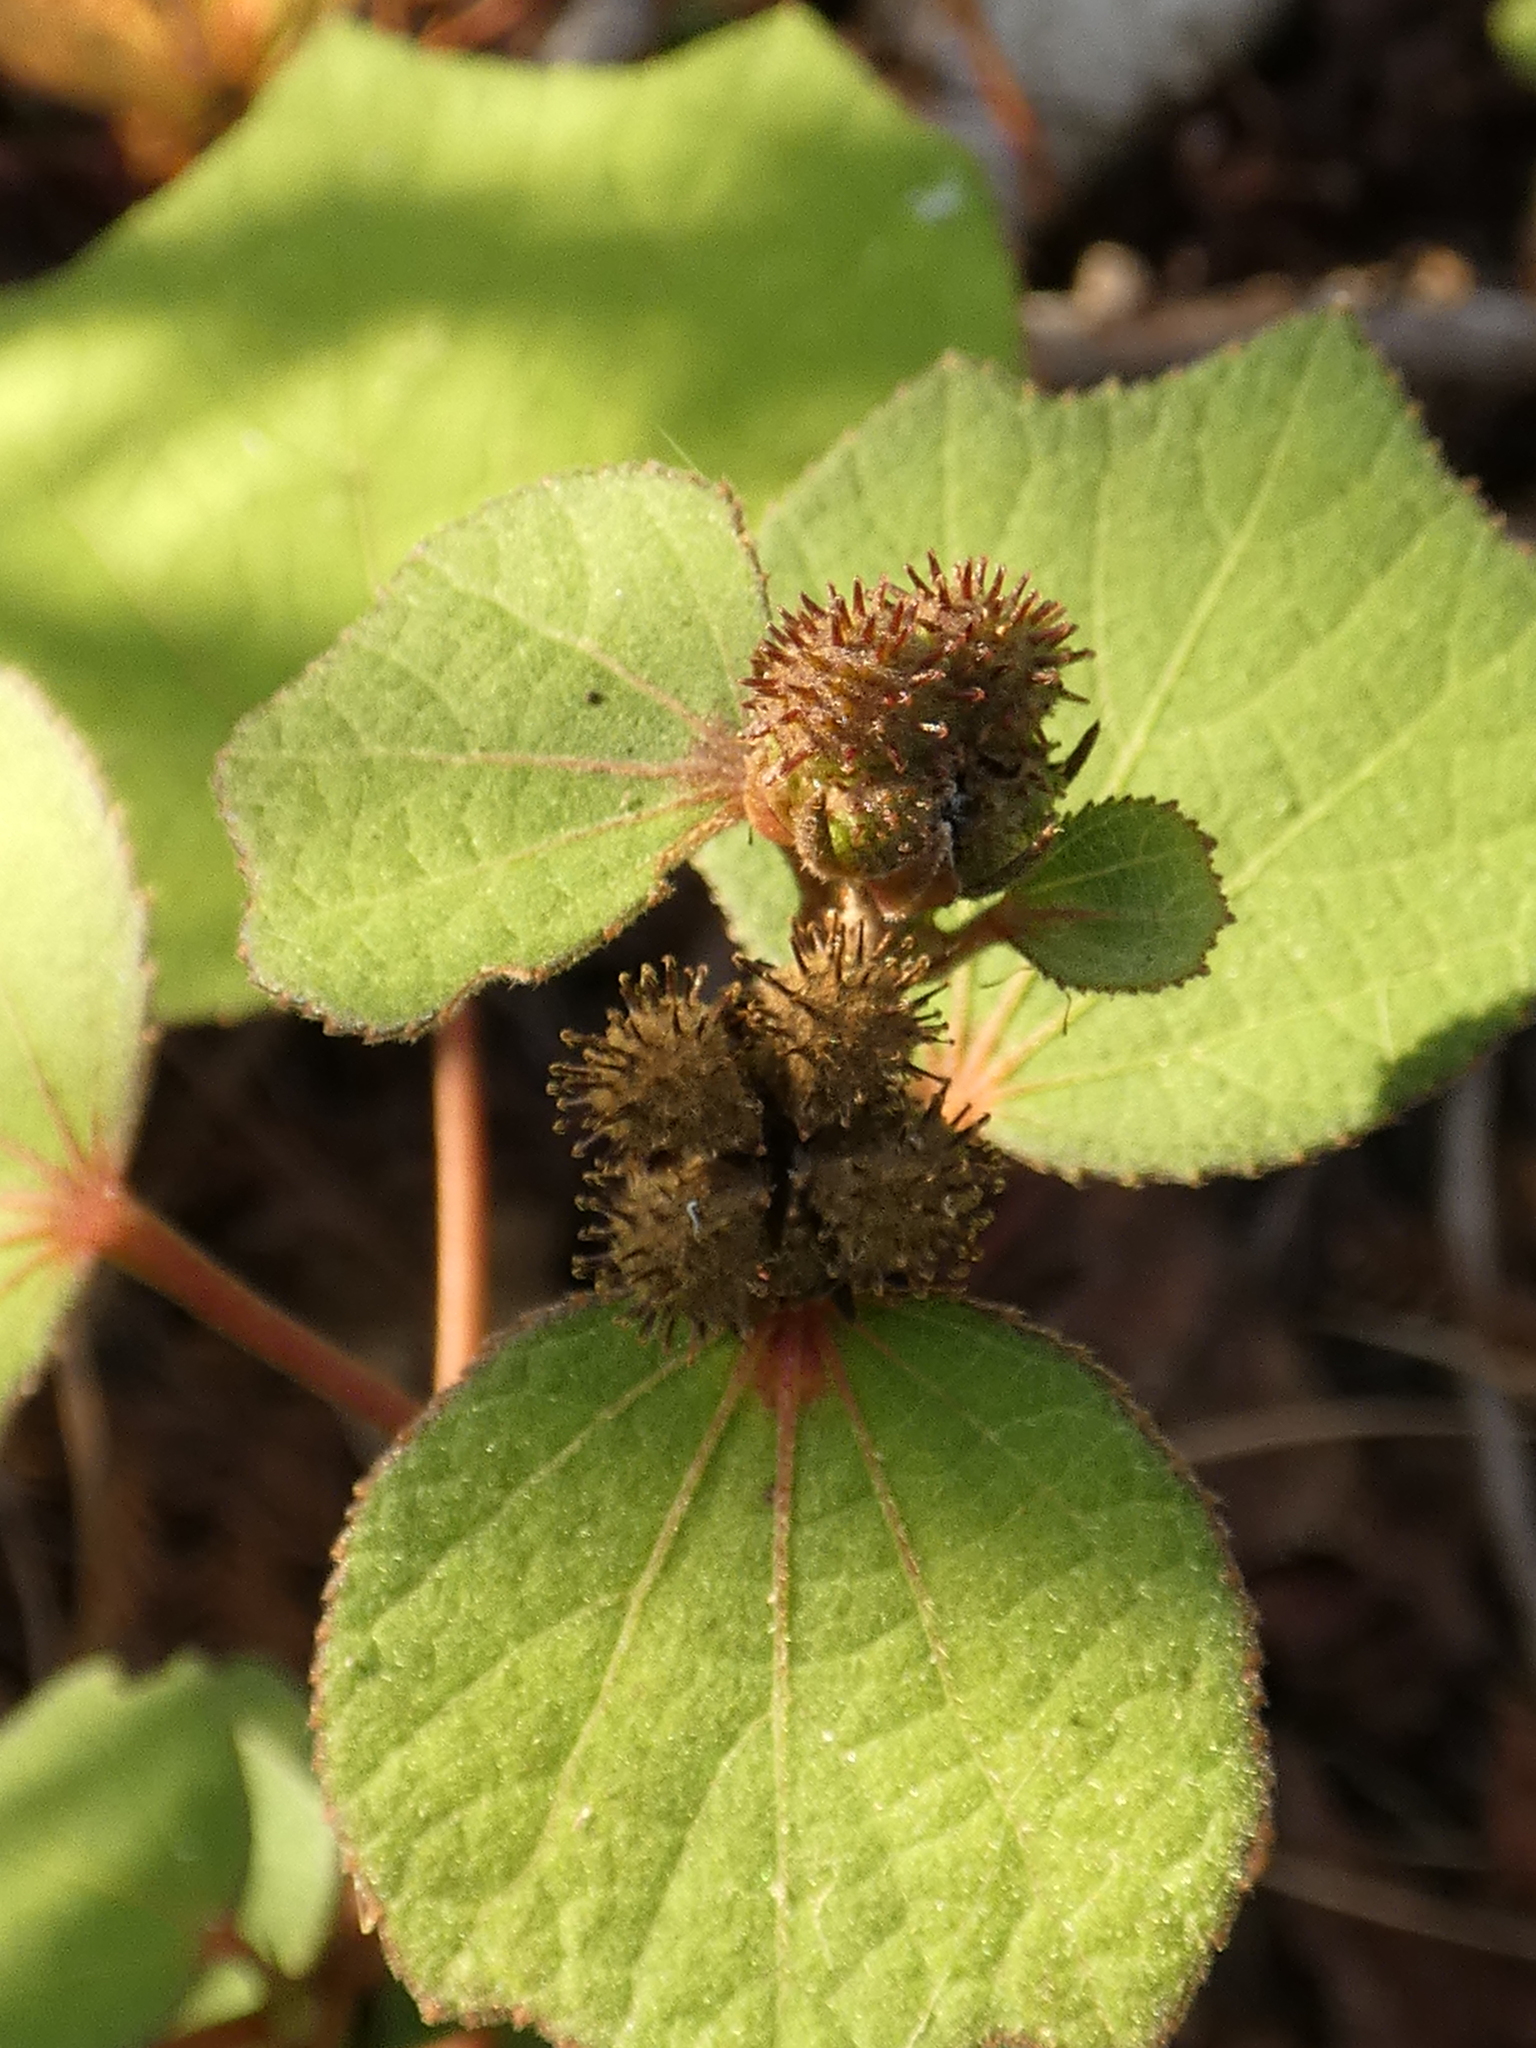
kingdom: Plantae
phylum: Tracheophyta
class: Magnoliopsida
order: Malvales
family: Malvaceae
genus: Urena
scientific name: Urena lobata
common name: Caesarweed
